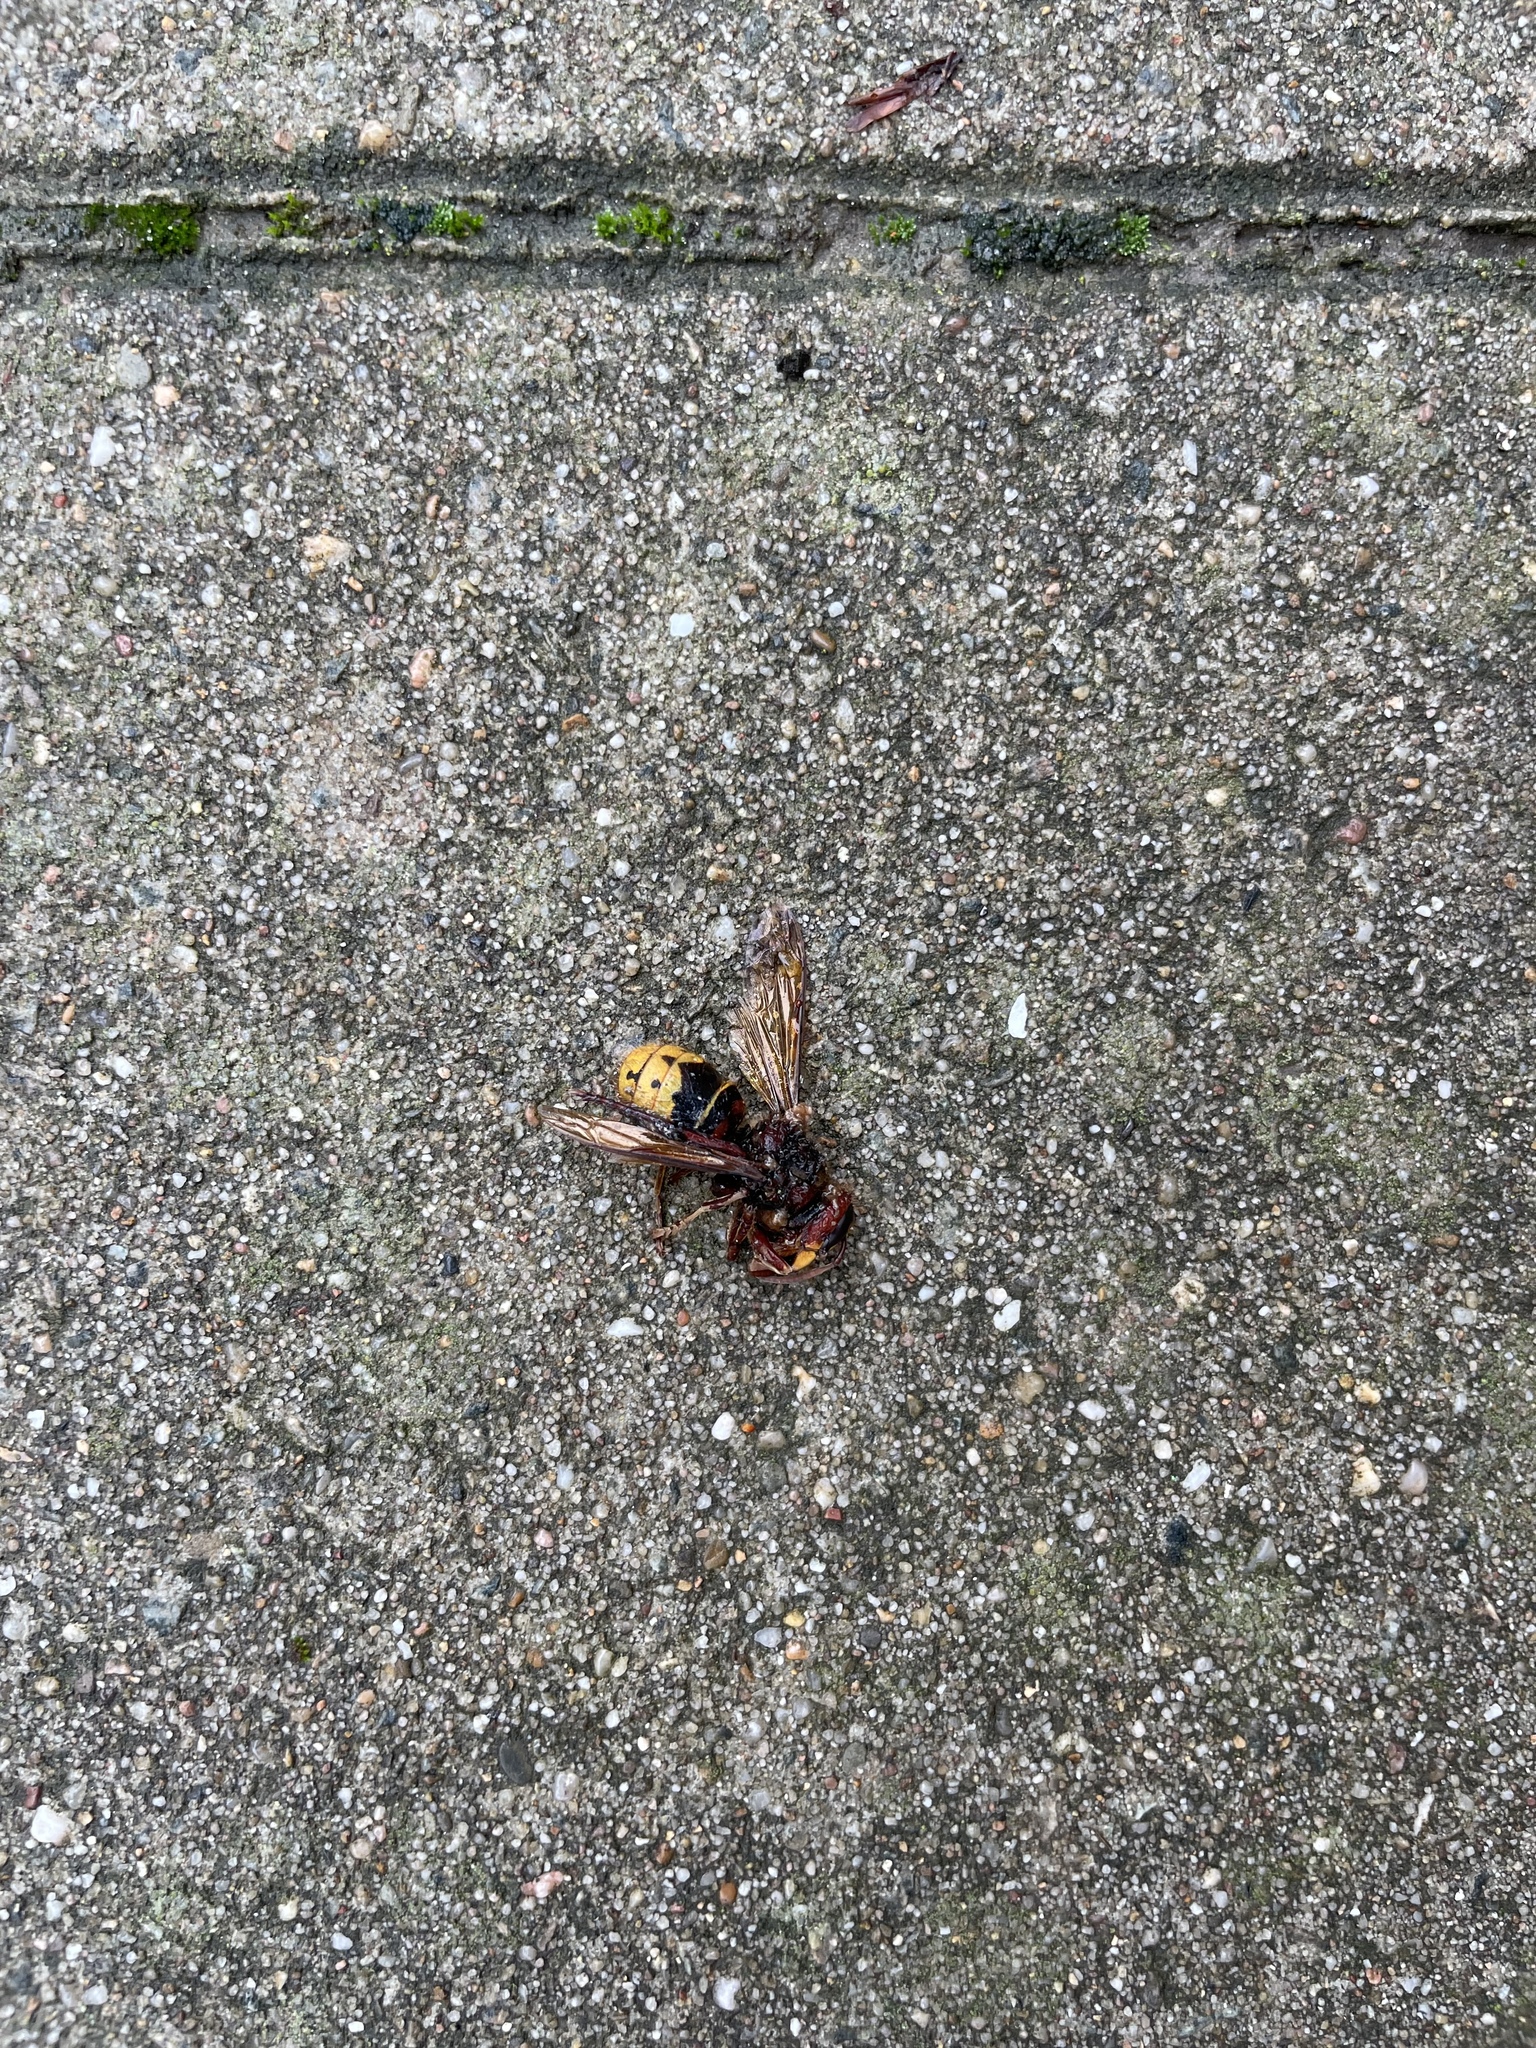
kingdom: Animalia
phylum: Arthropoda
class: Insecta
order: Hymenoptera
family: Vespidae
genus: Vespa
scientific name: Vespa crabro
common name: Hornet
